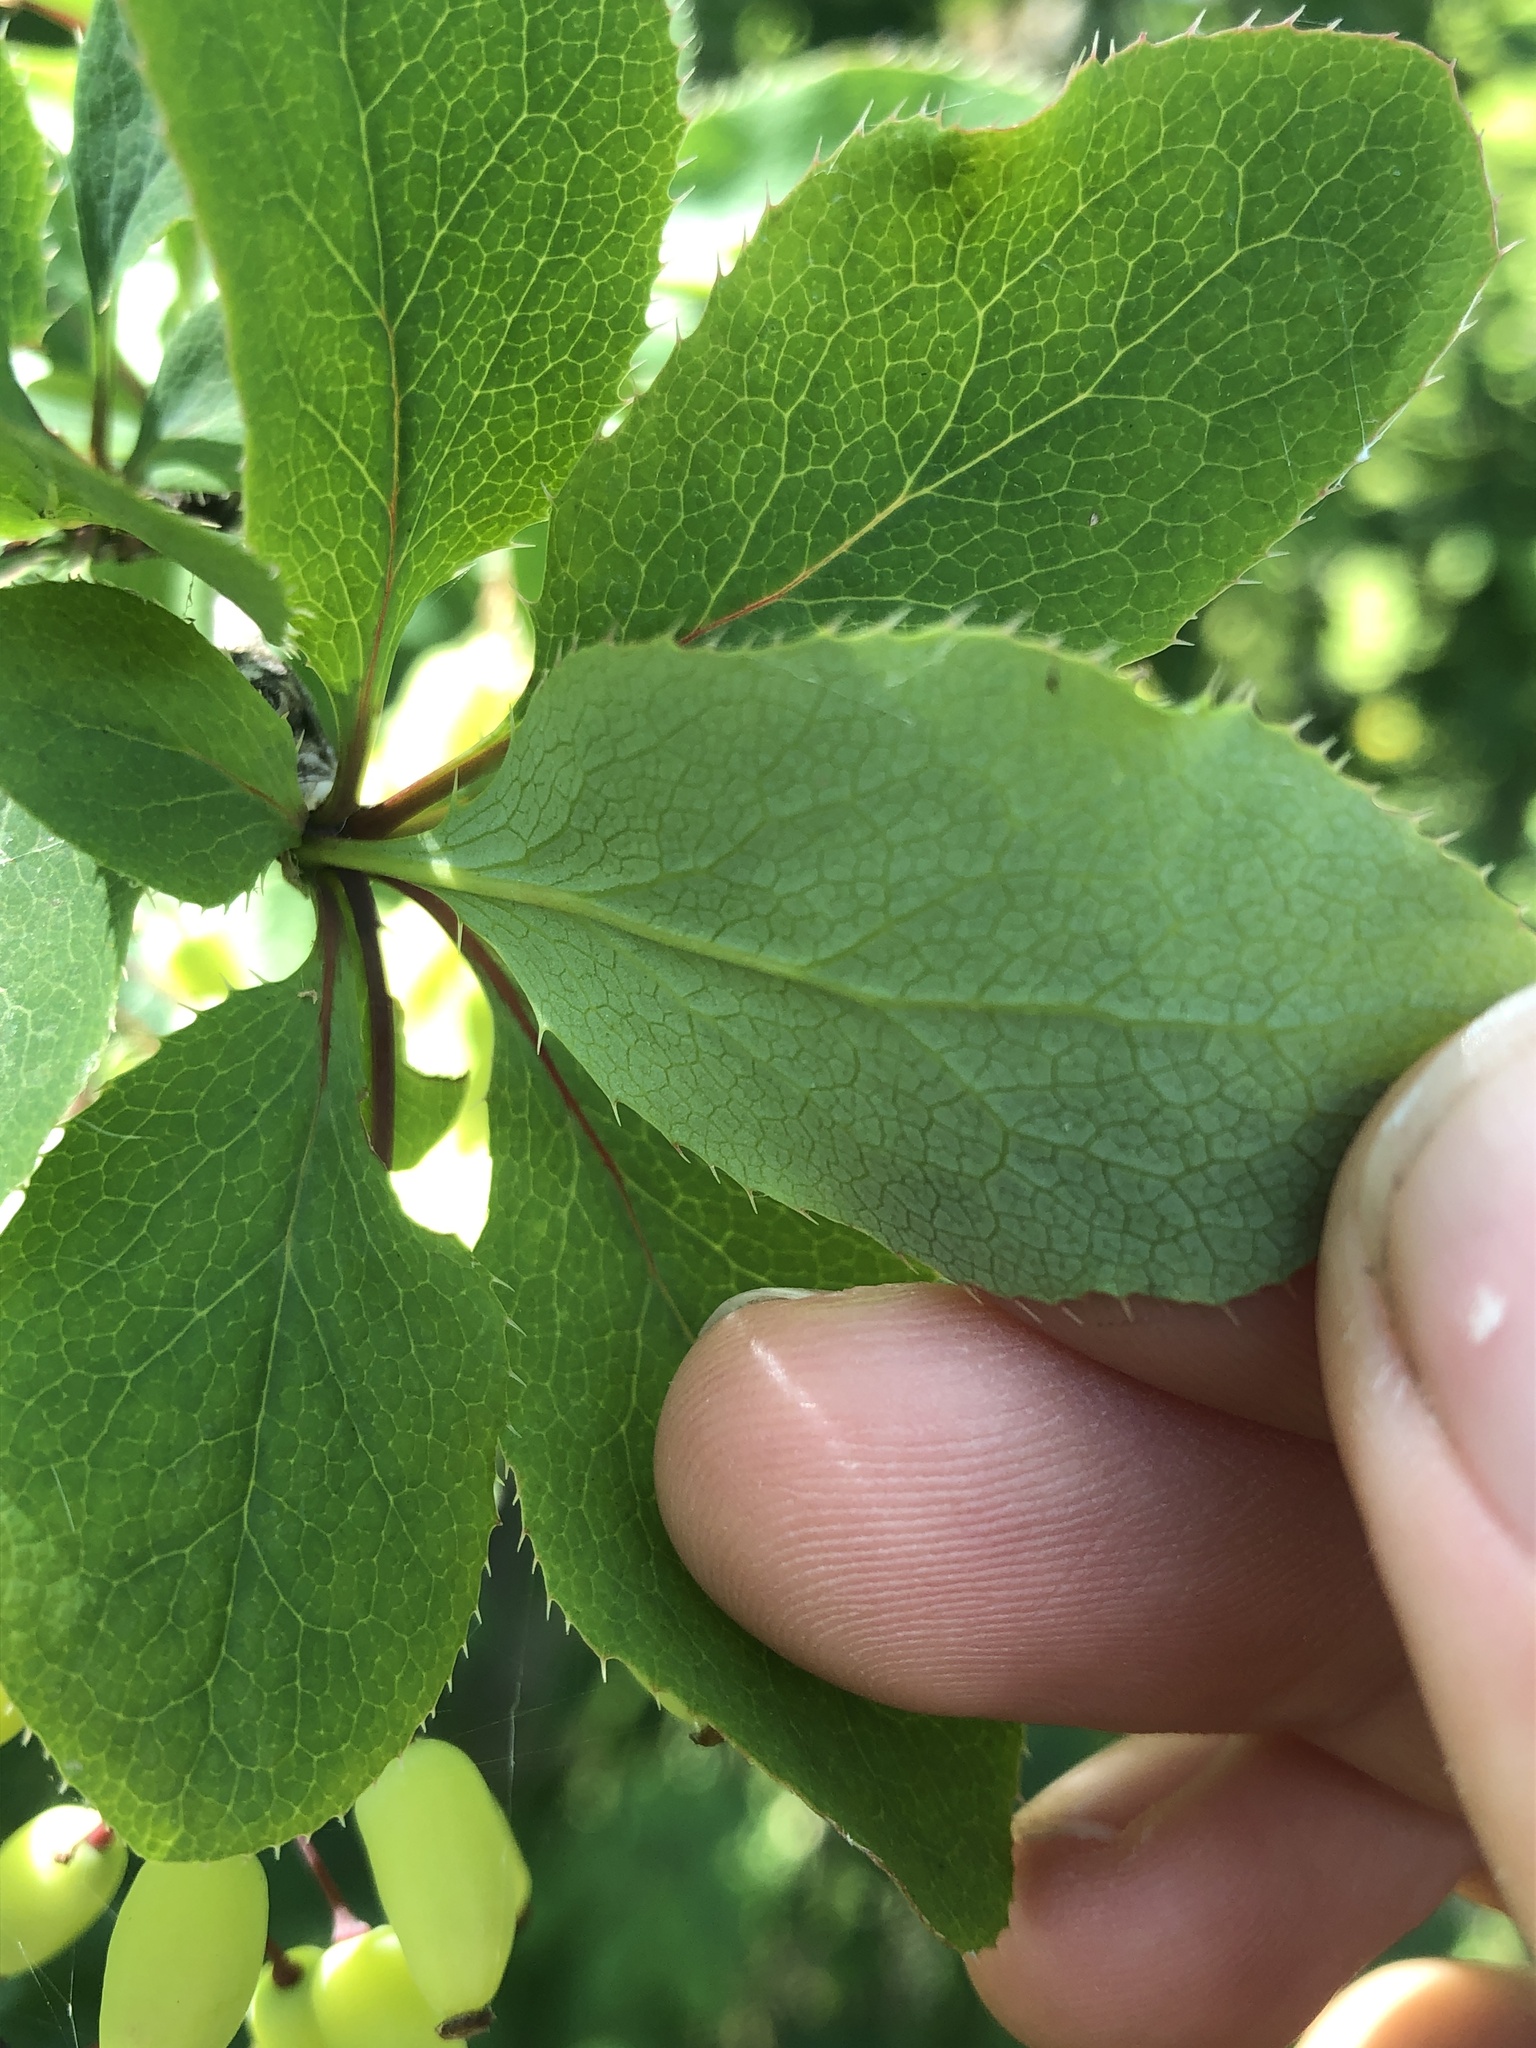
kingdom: Plantae
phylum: Tracheophyta
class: Magnoliopsida
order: Ranunculales
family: Berberidaceae
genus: Berberis
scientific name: Berberis vulgaris
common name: Barberry
